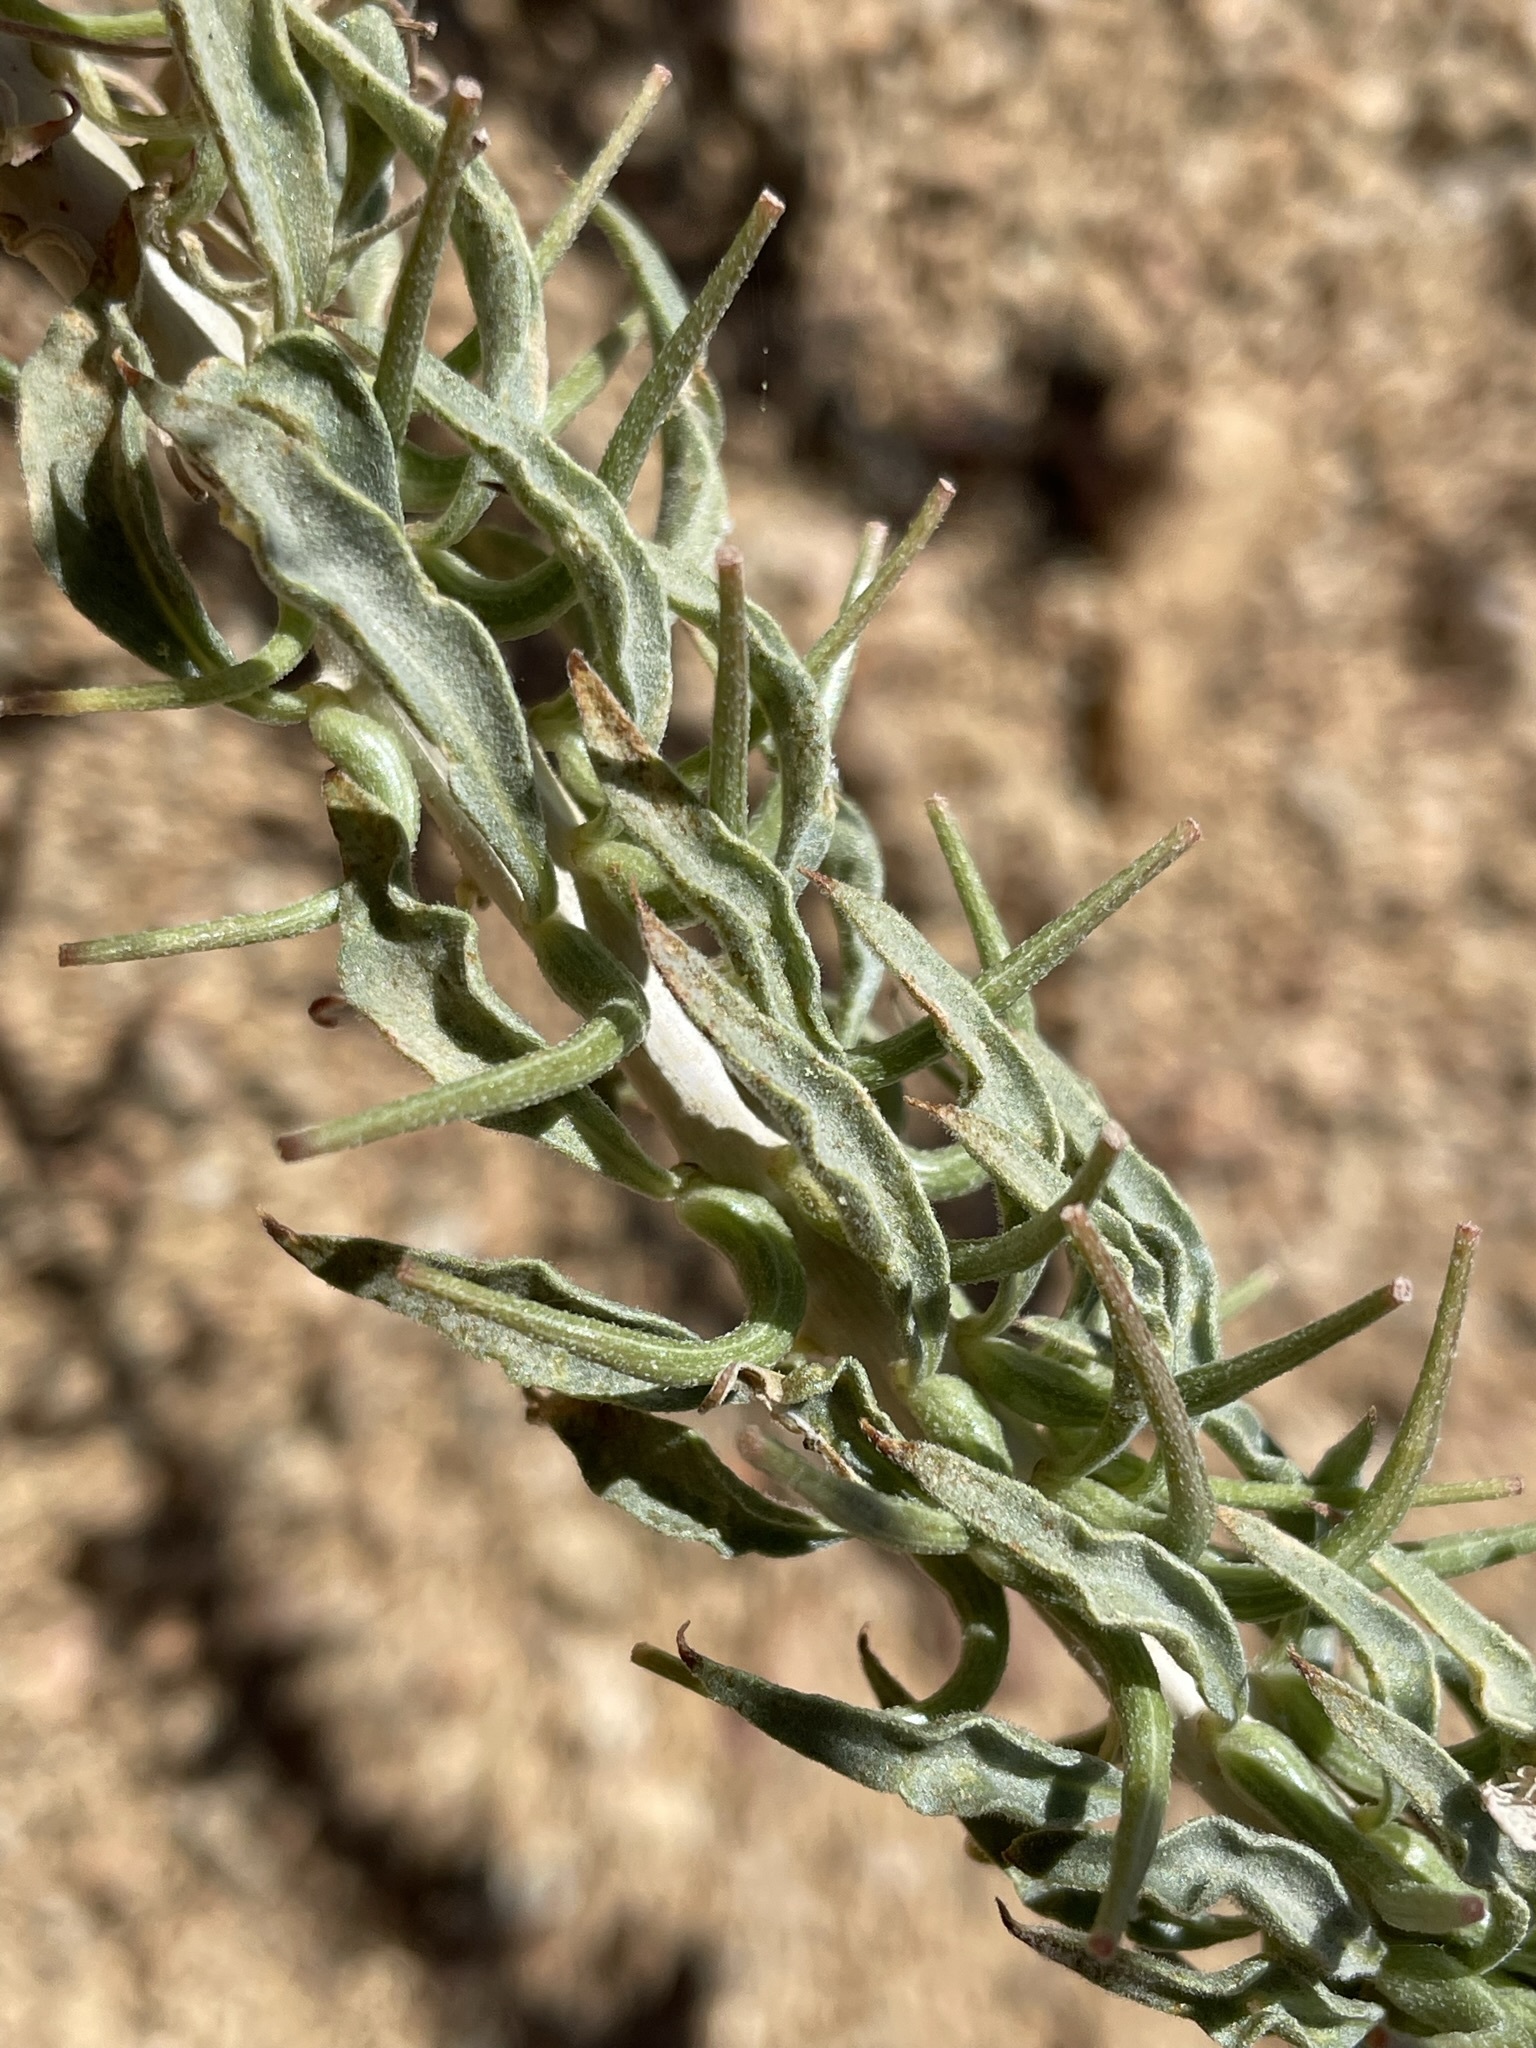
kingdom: Plantae
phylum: Tracheophyta
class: Magnoliopsida
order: Myrtales
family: Onagraceae
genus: Eremothera
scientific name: Eremothera boothii
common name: Booth's evening primrose
